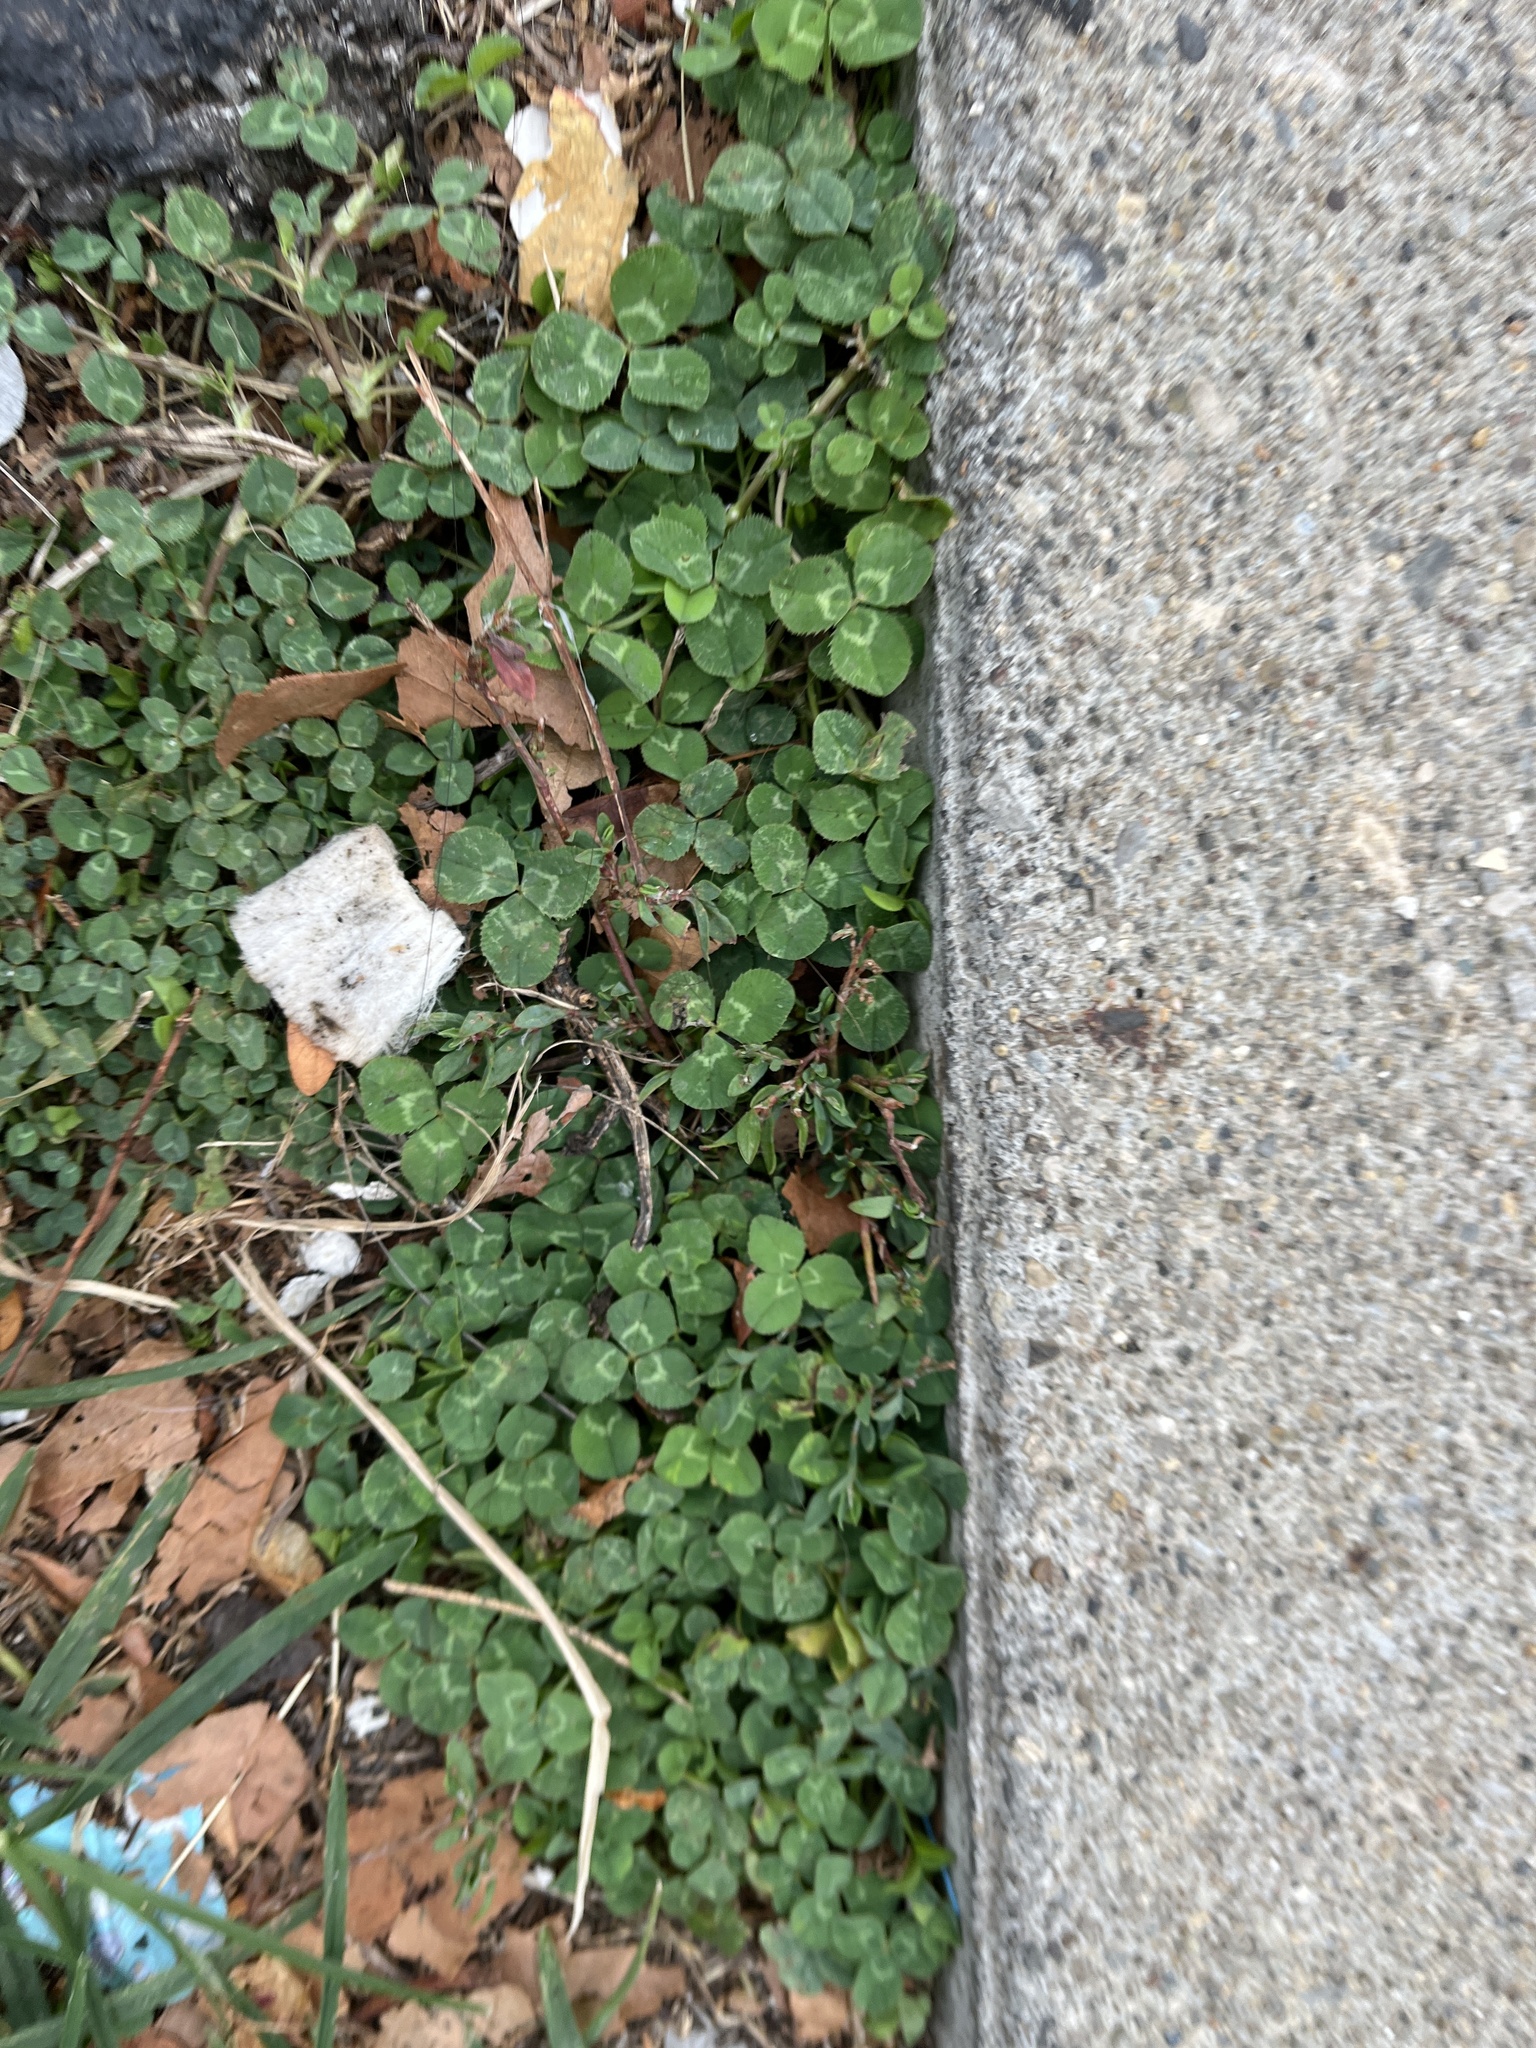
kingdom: Plantae
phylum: Tracheophyta
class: Magnoliopsida
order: Fabales
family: Fabaceae
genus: Trifolium
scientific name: Trifolium repens
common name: White clover
